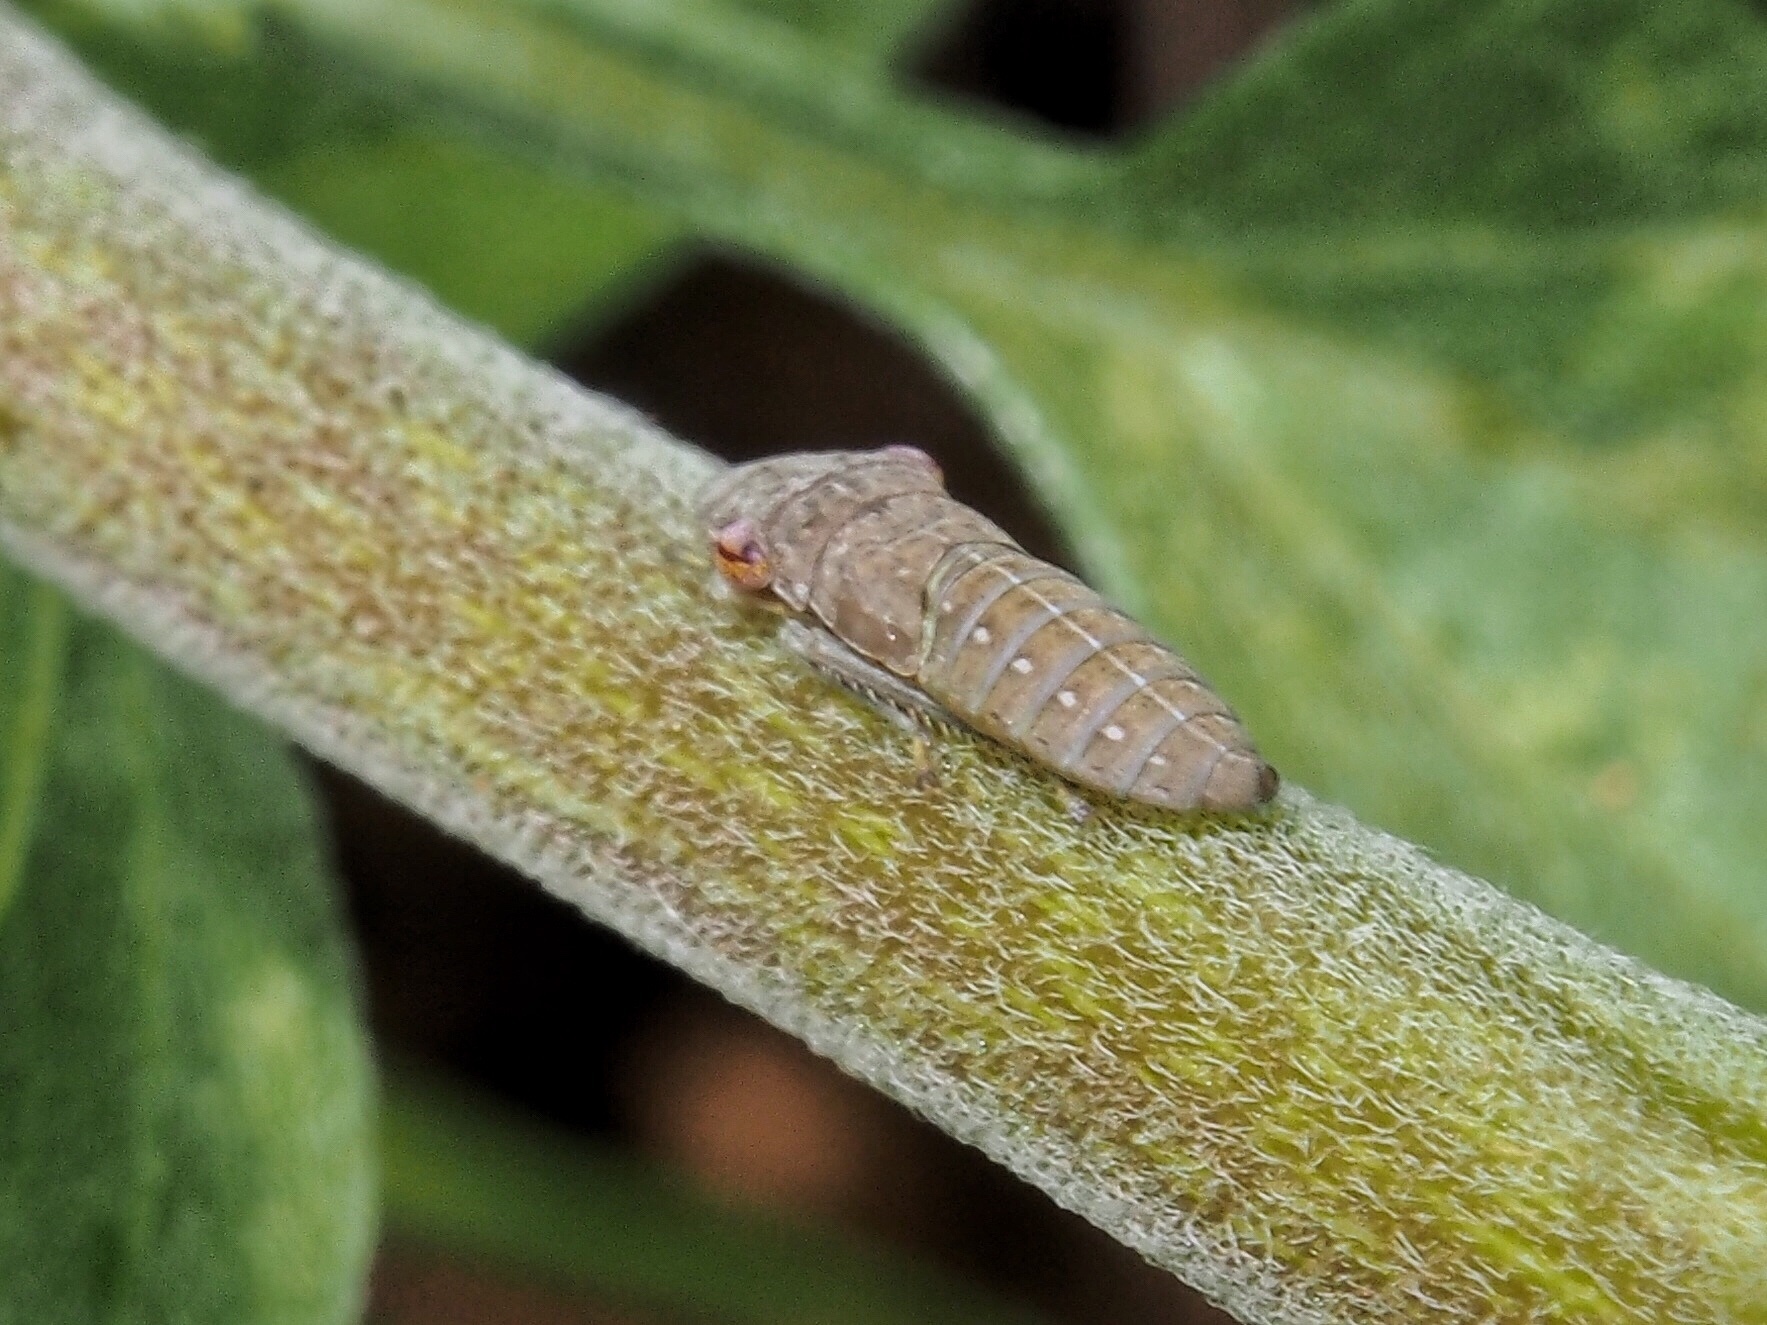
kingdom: Animalia
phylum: Arthropoda
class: Insecta
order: Hemiptera
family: Cicadellidae
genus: Homalodisca
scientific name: Homalodisca
